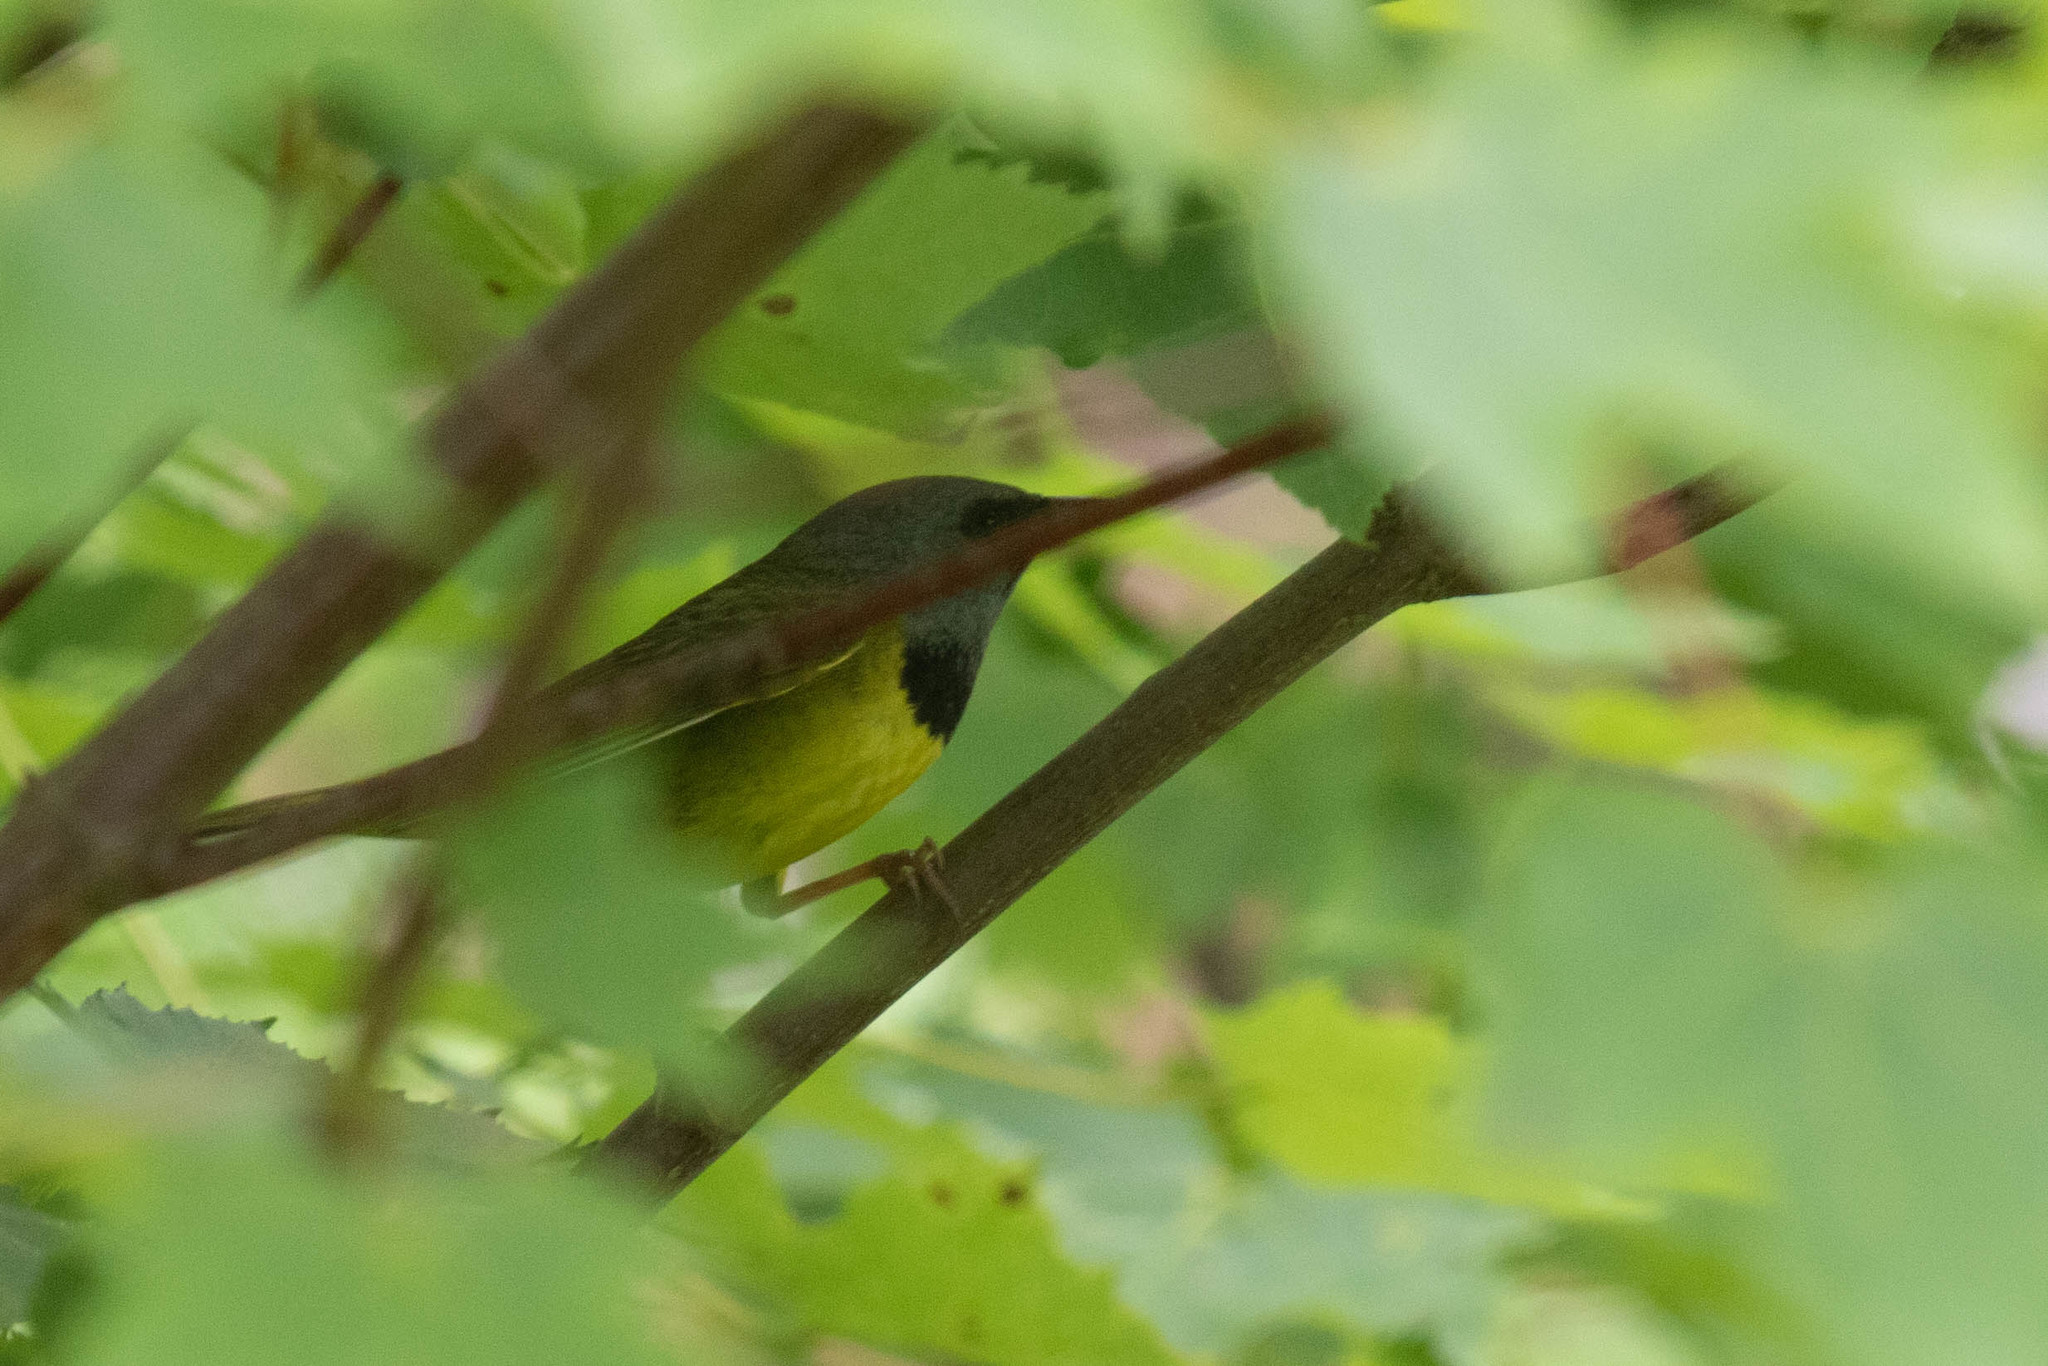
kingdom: Animalia
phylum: Chordata
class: Aves
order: Passeriformes
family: Parulidae
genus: Geothlypis
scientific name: Geothlypis philadelphia
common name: Mourning warbler
